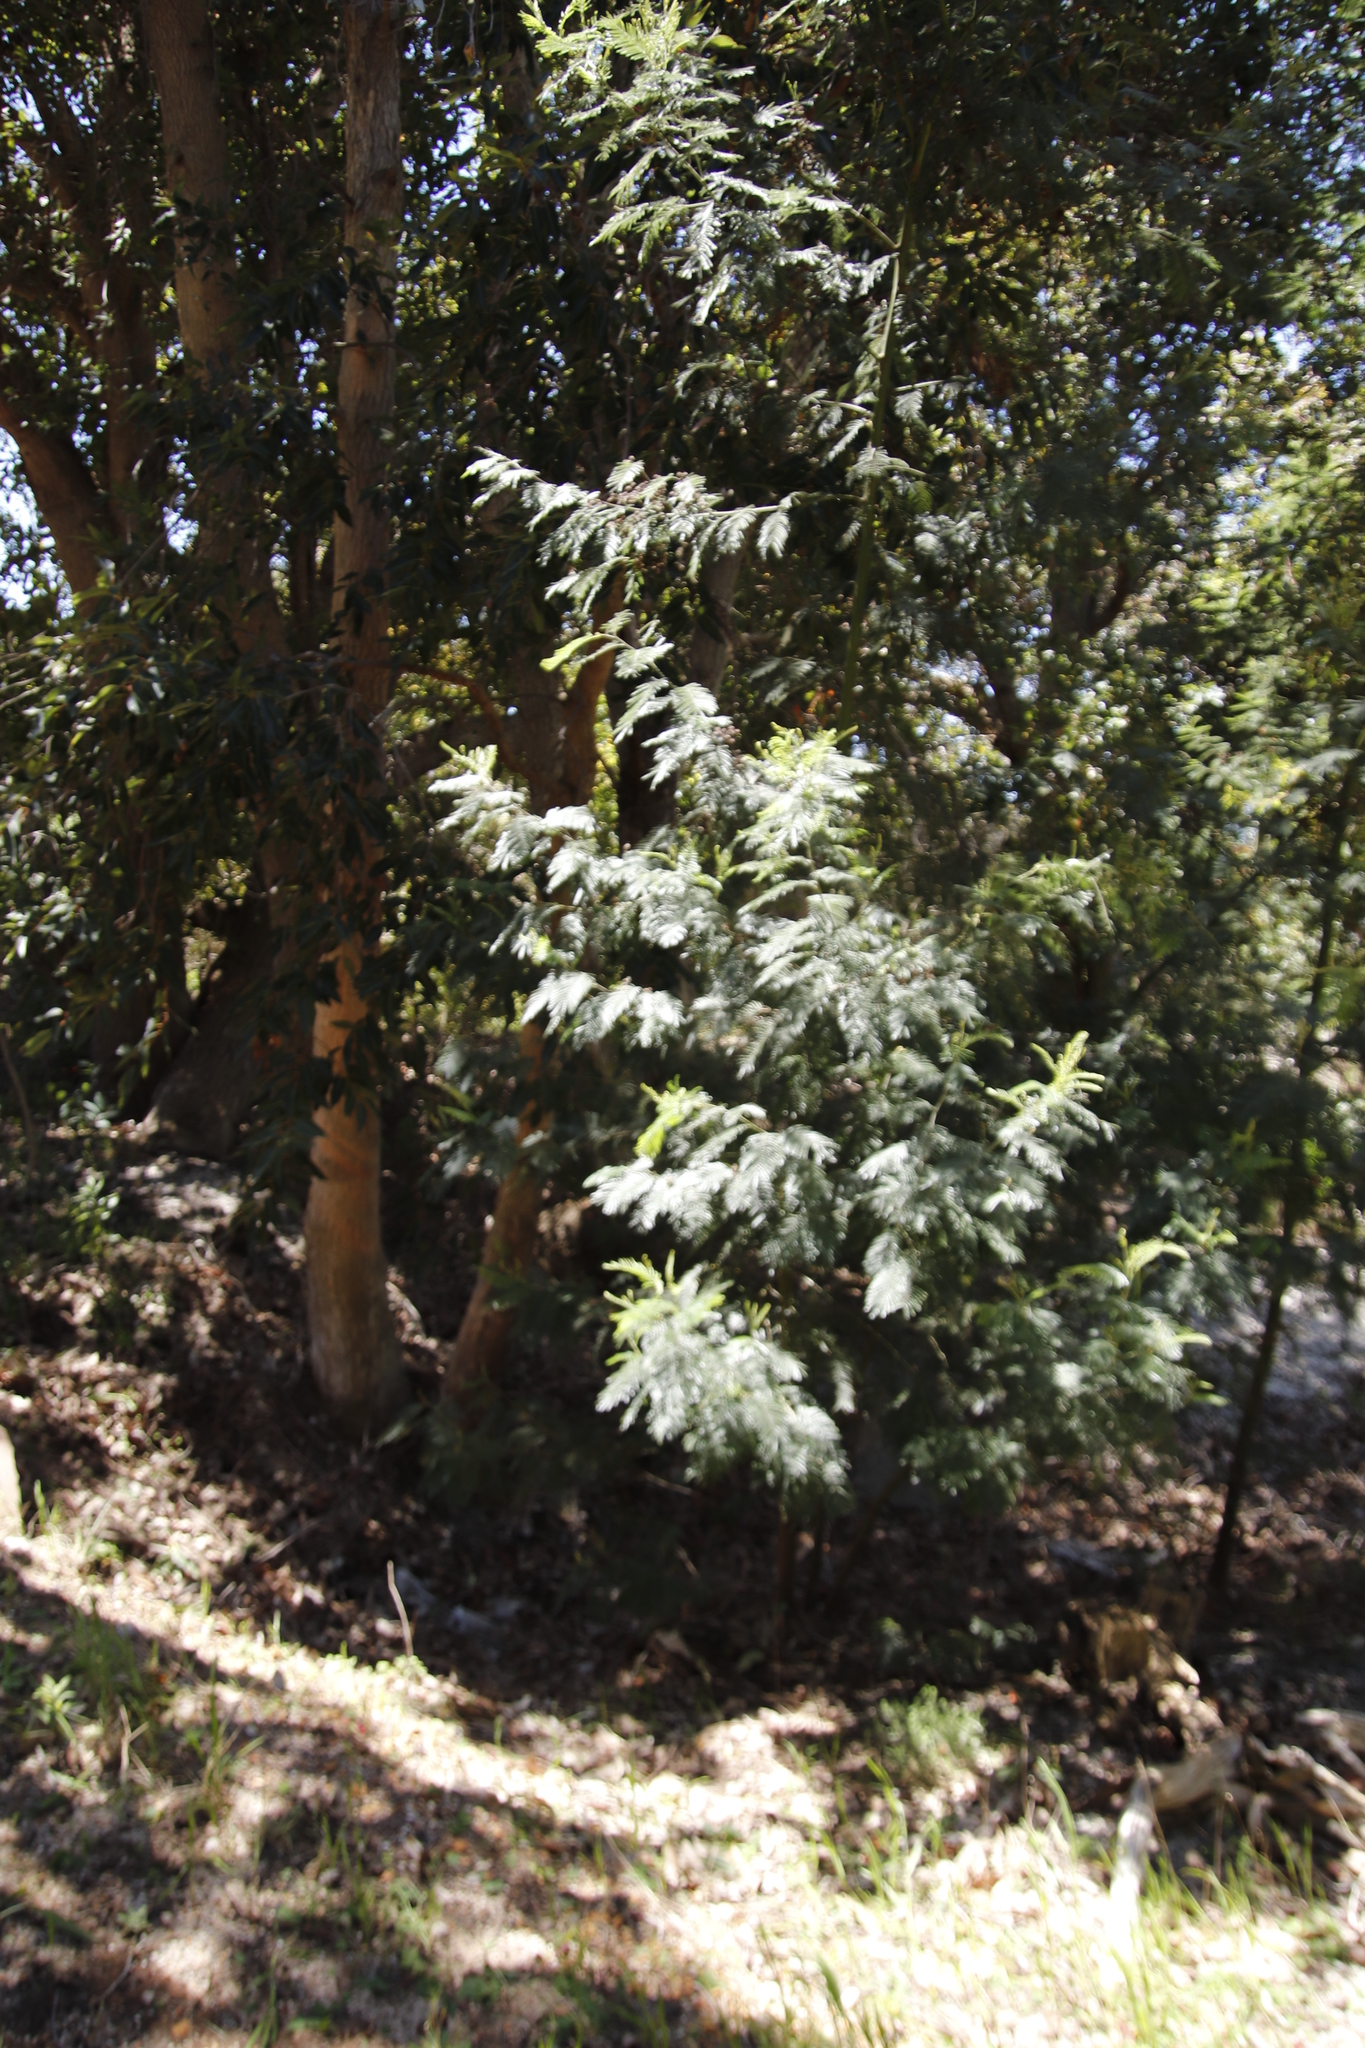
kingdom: Animalia
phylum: Arthropoda
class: Insecta
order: Diptera
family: Cecidomyiidae
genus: Dasineura
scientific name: Dasineura rubiformis
